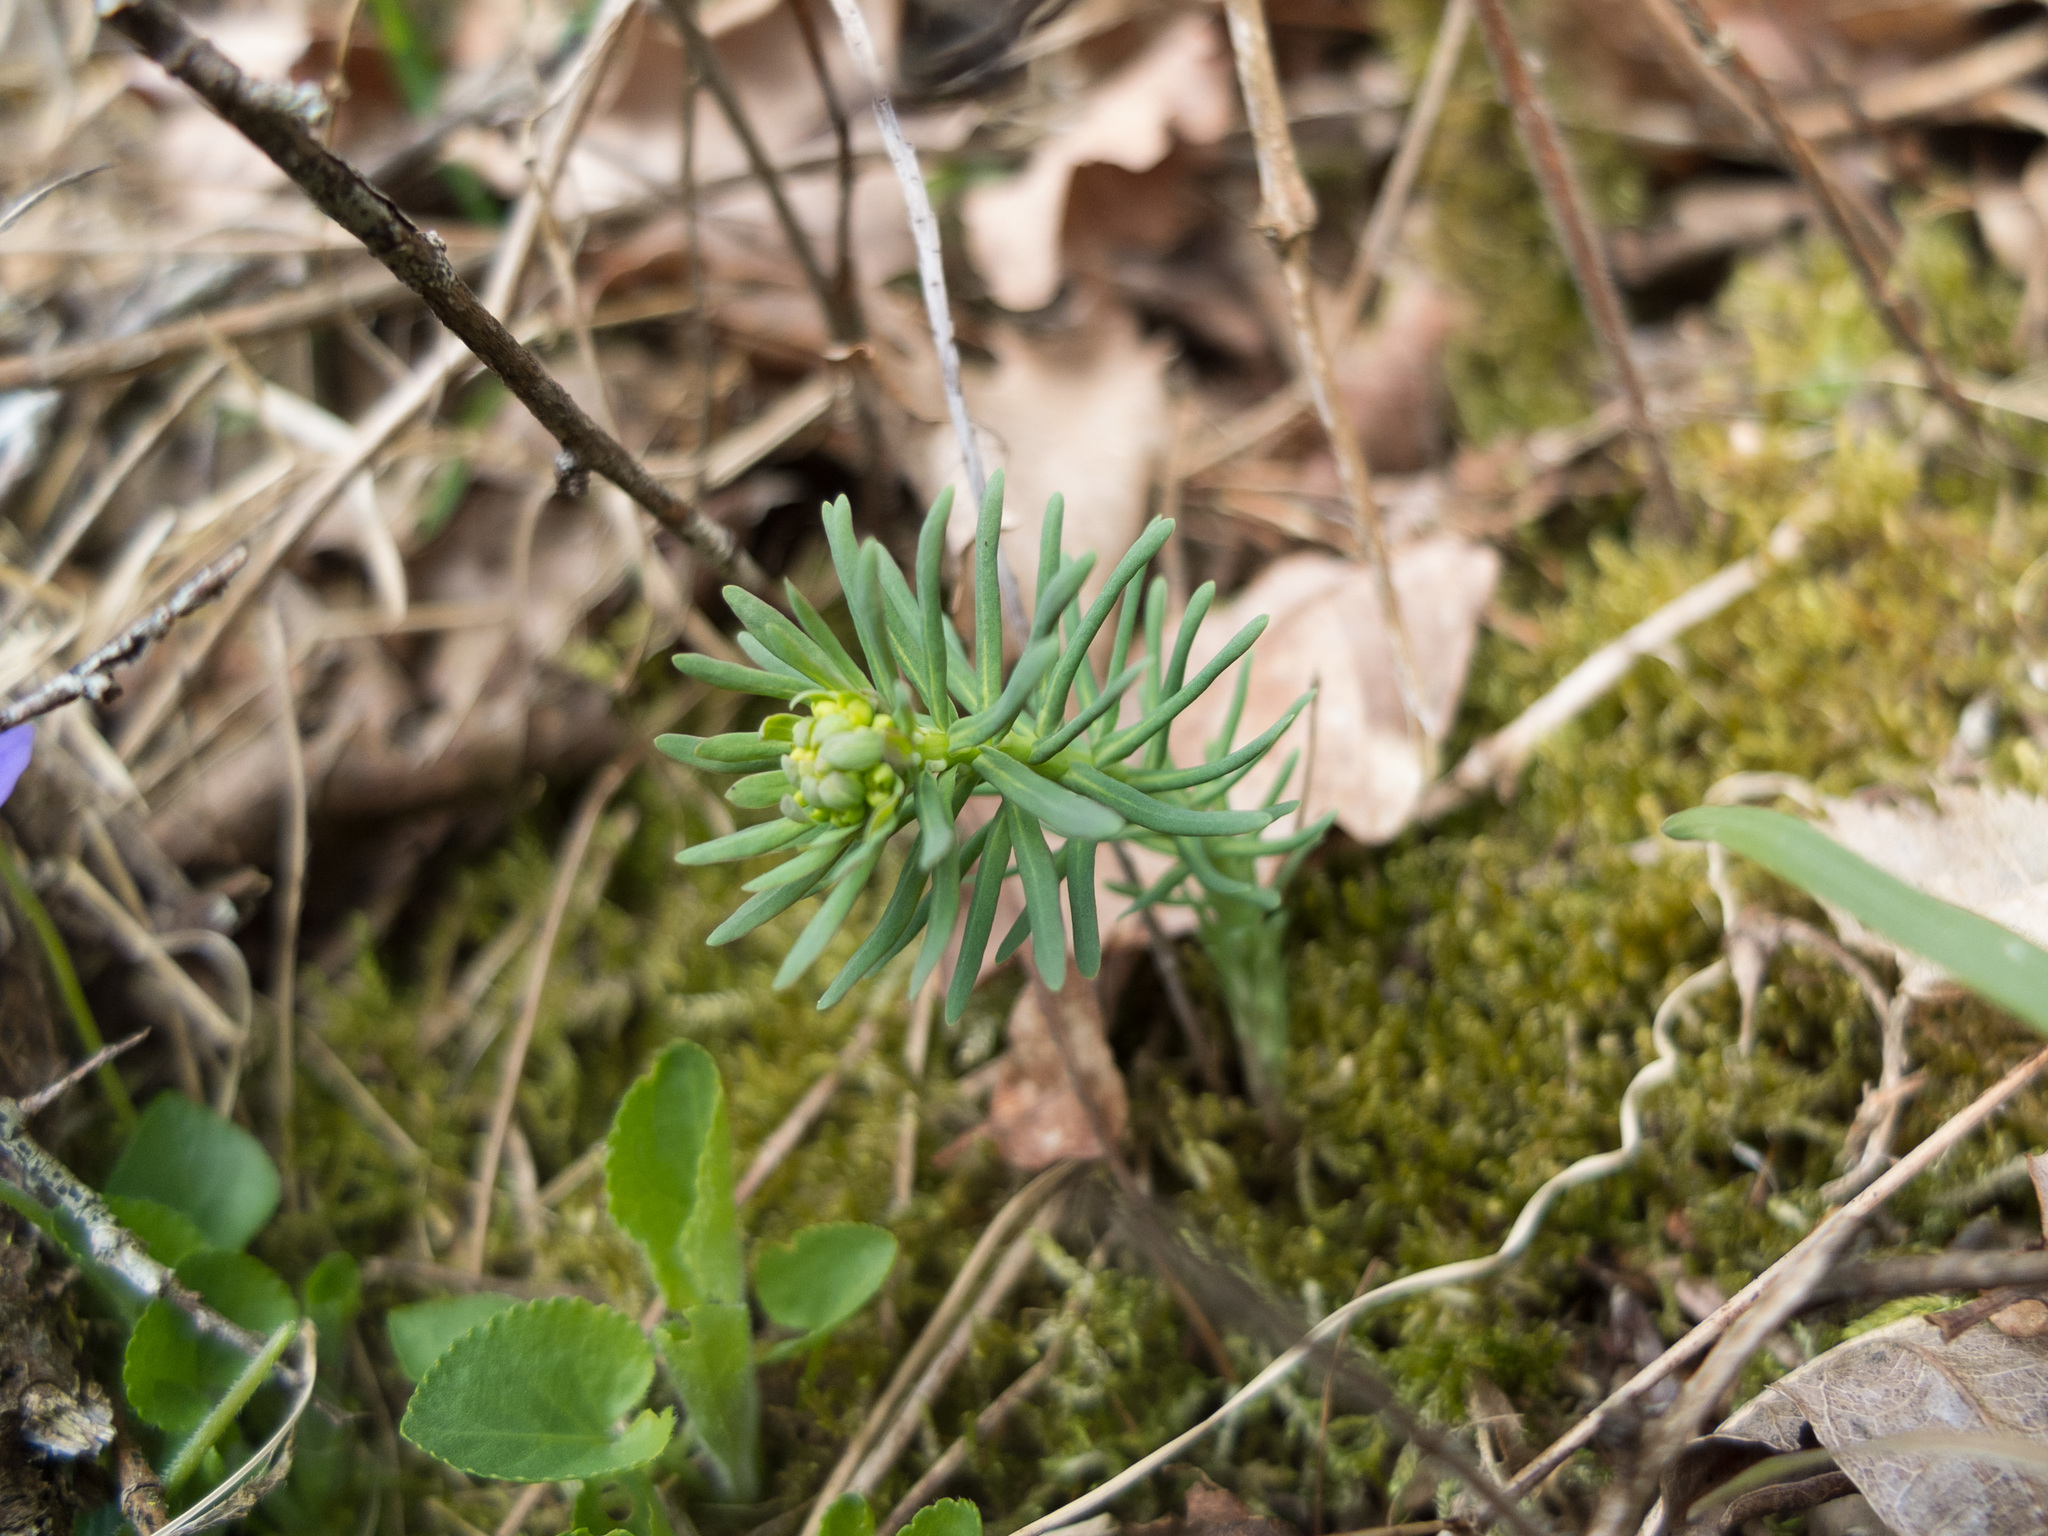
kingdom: Plantae
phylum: Tracheophyta
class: Magnoliopsida
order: Malpighiales
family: Euphorbiaceae
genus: Euphorbia
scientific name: Euphorbia cyparissias
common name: Cypress spurge
